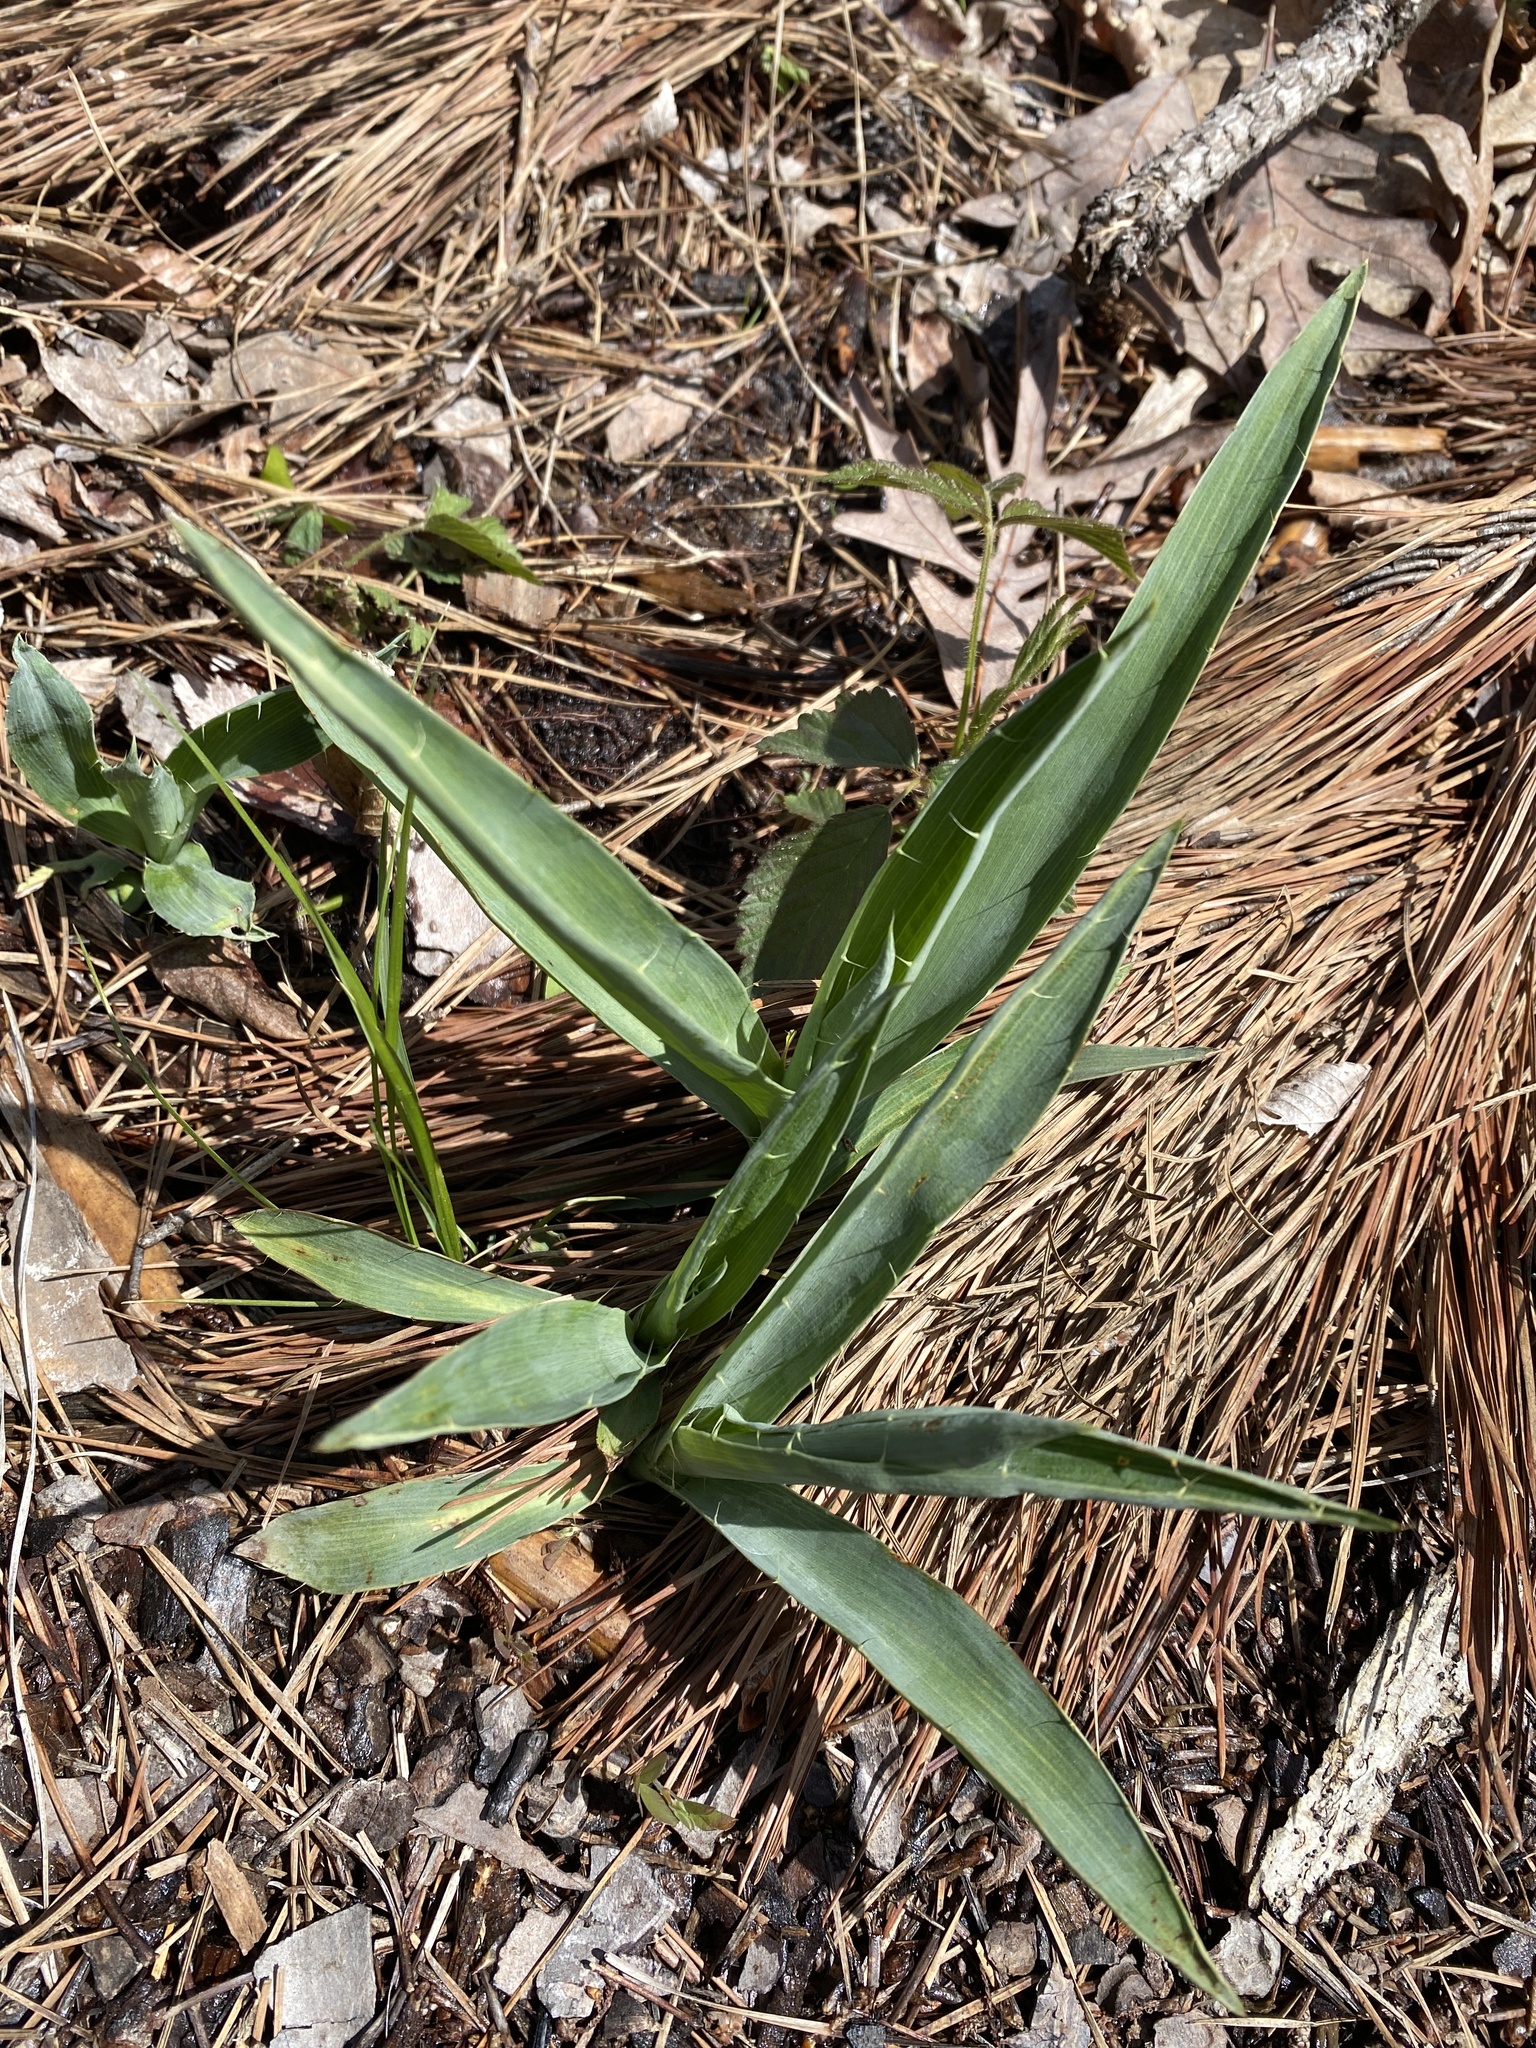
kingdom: Plantae
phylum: Tracheophyta
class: Magnoliopsida
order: Apiales
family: Apiaceae
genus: Eryngium
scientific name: Eryngium yuccifolium
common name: Button eryngo
